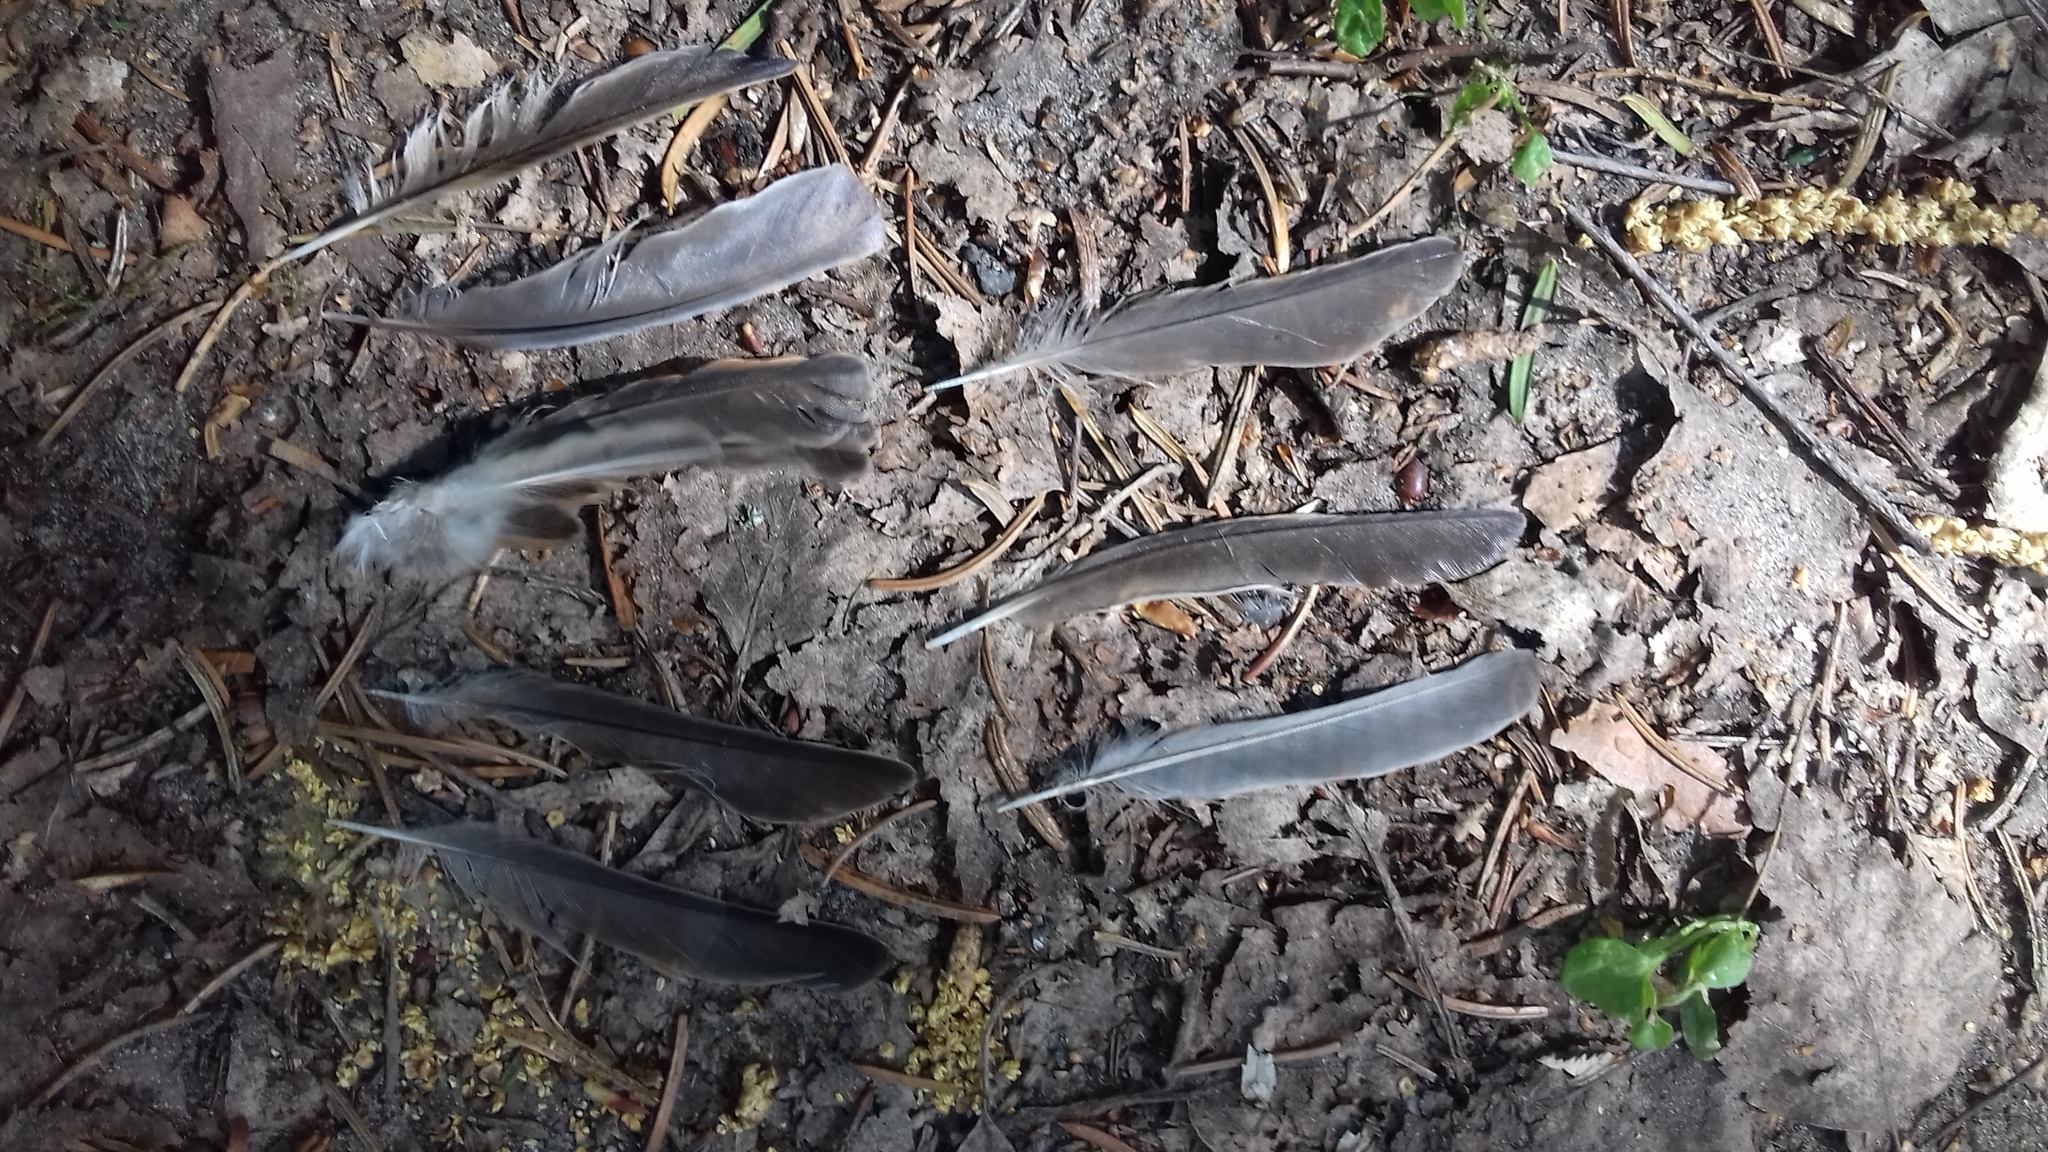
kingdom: Animalia
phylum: Chordata
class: Aves
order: Passeriformes
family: Passeridae
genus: Passer
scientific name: Passer domesticus
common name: House sparrow
